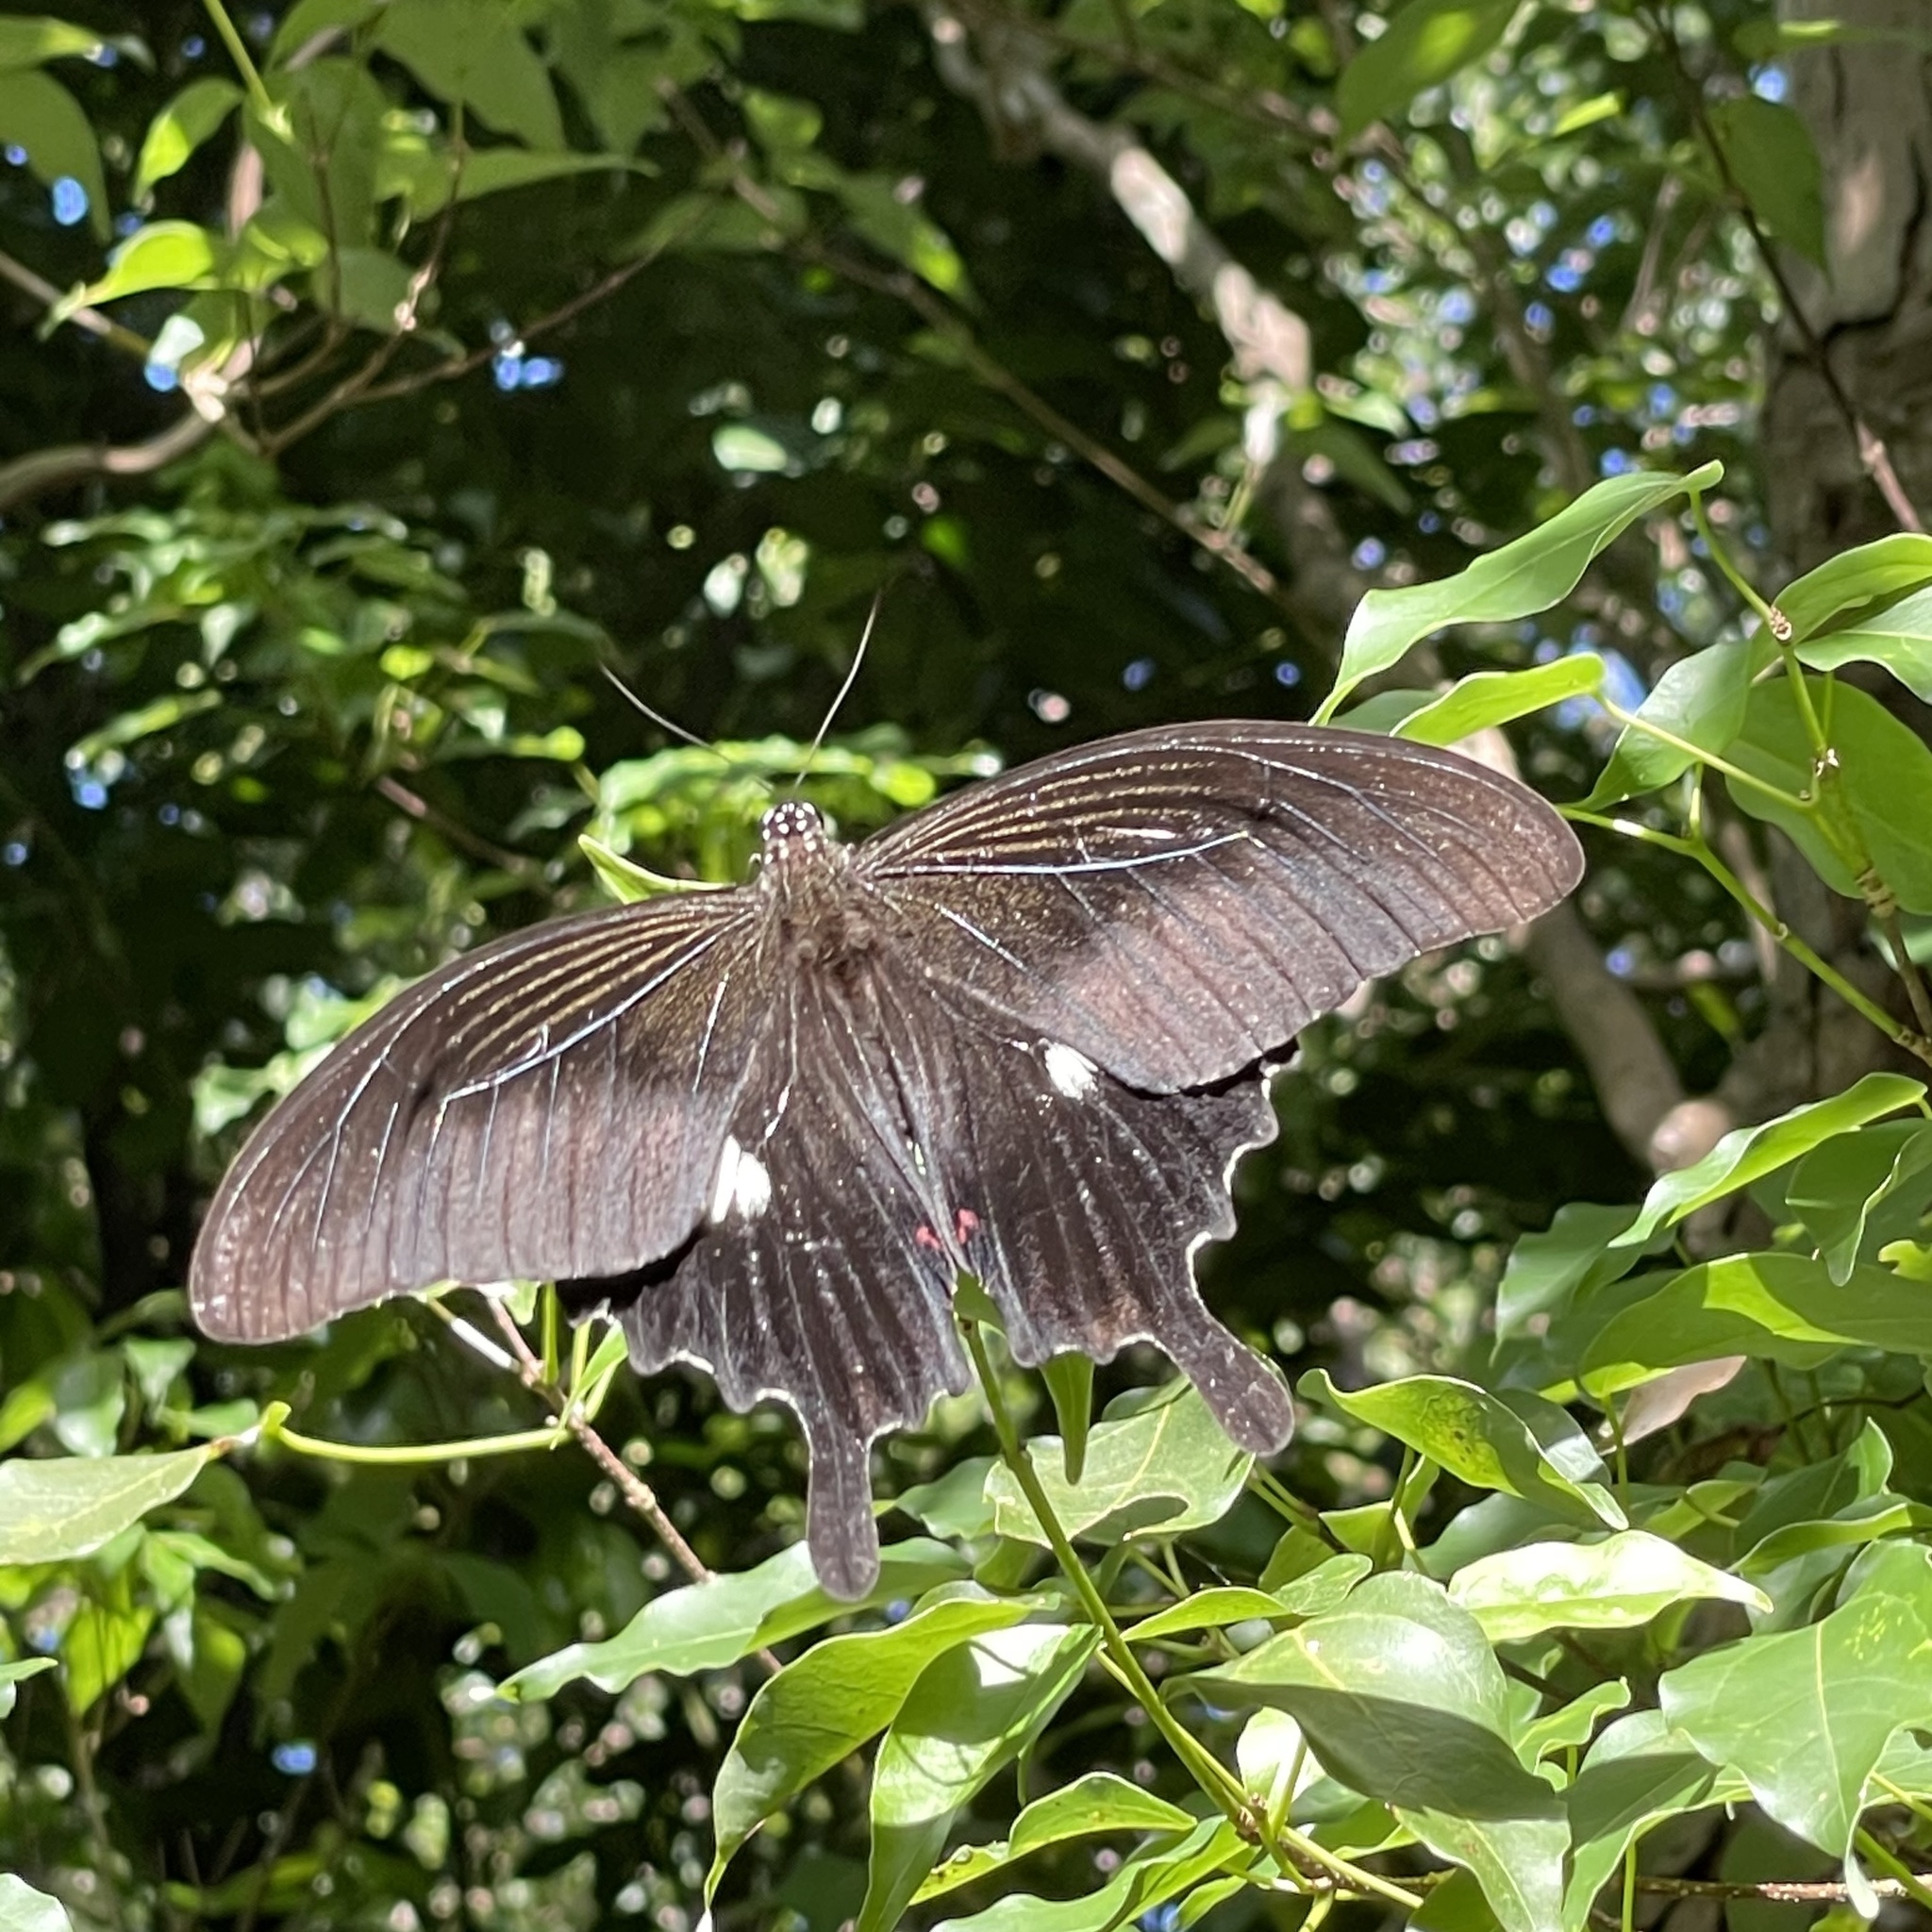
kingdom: Animalia
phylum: Arthropoda
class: Insecta
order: Lepidoptera
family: Papilionidae
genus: Papilio
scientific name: Papilio helenus
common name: Red helen
